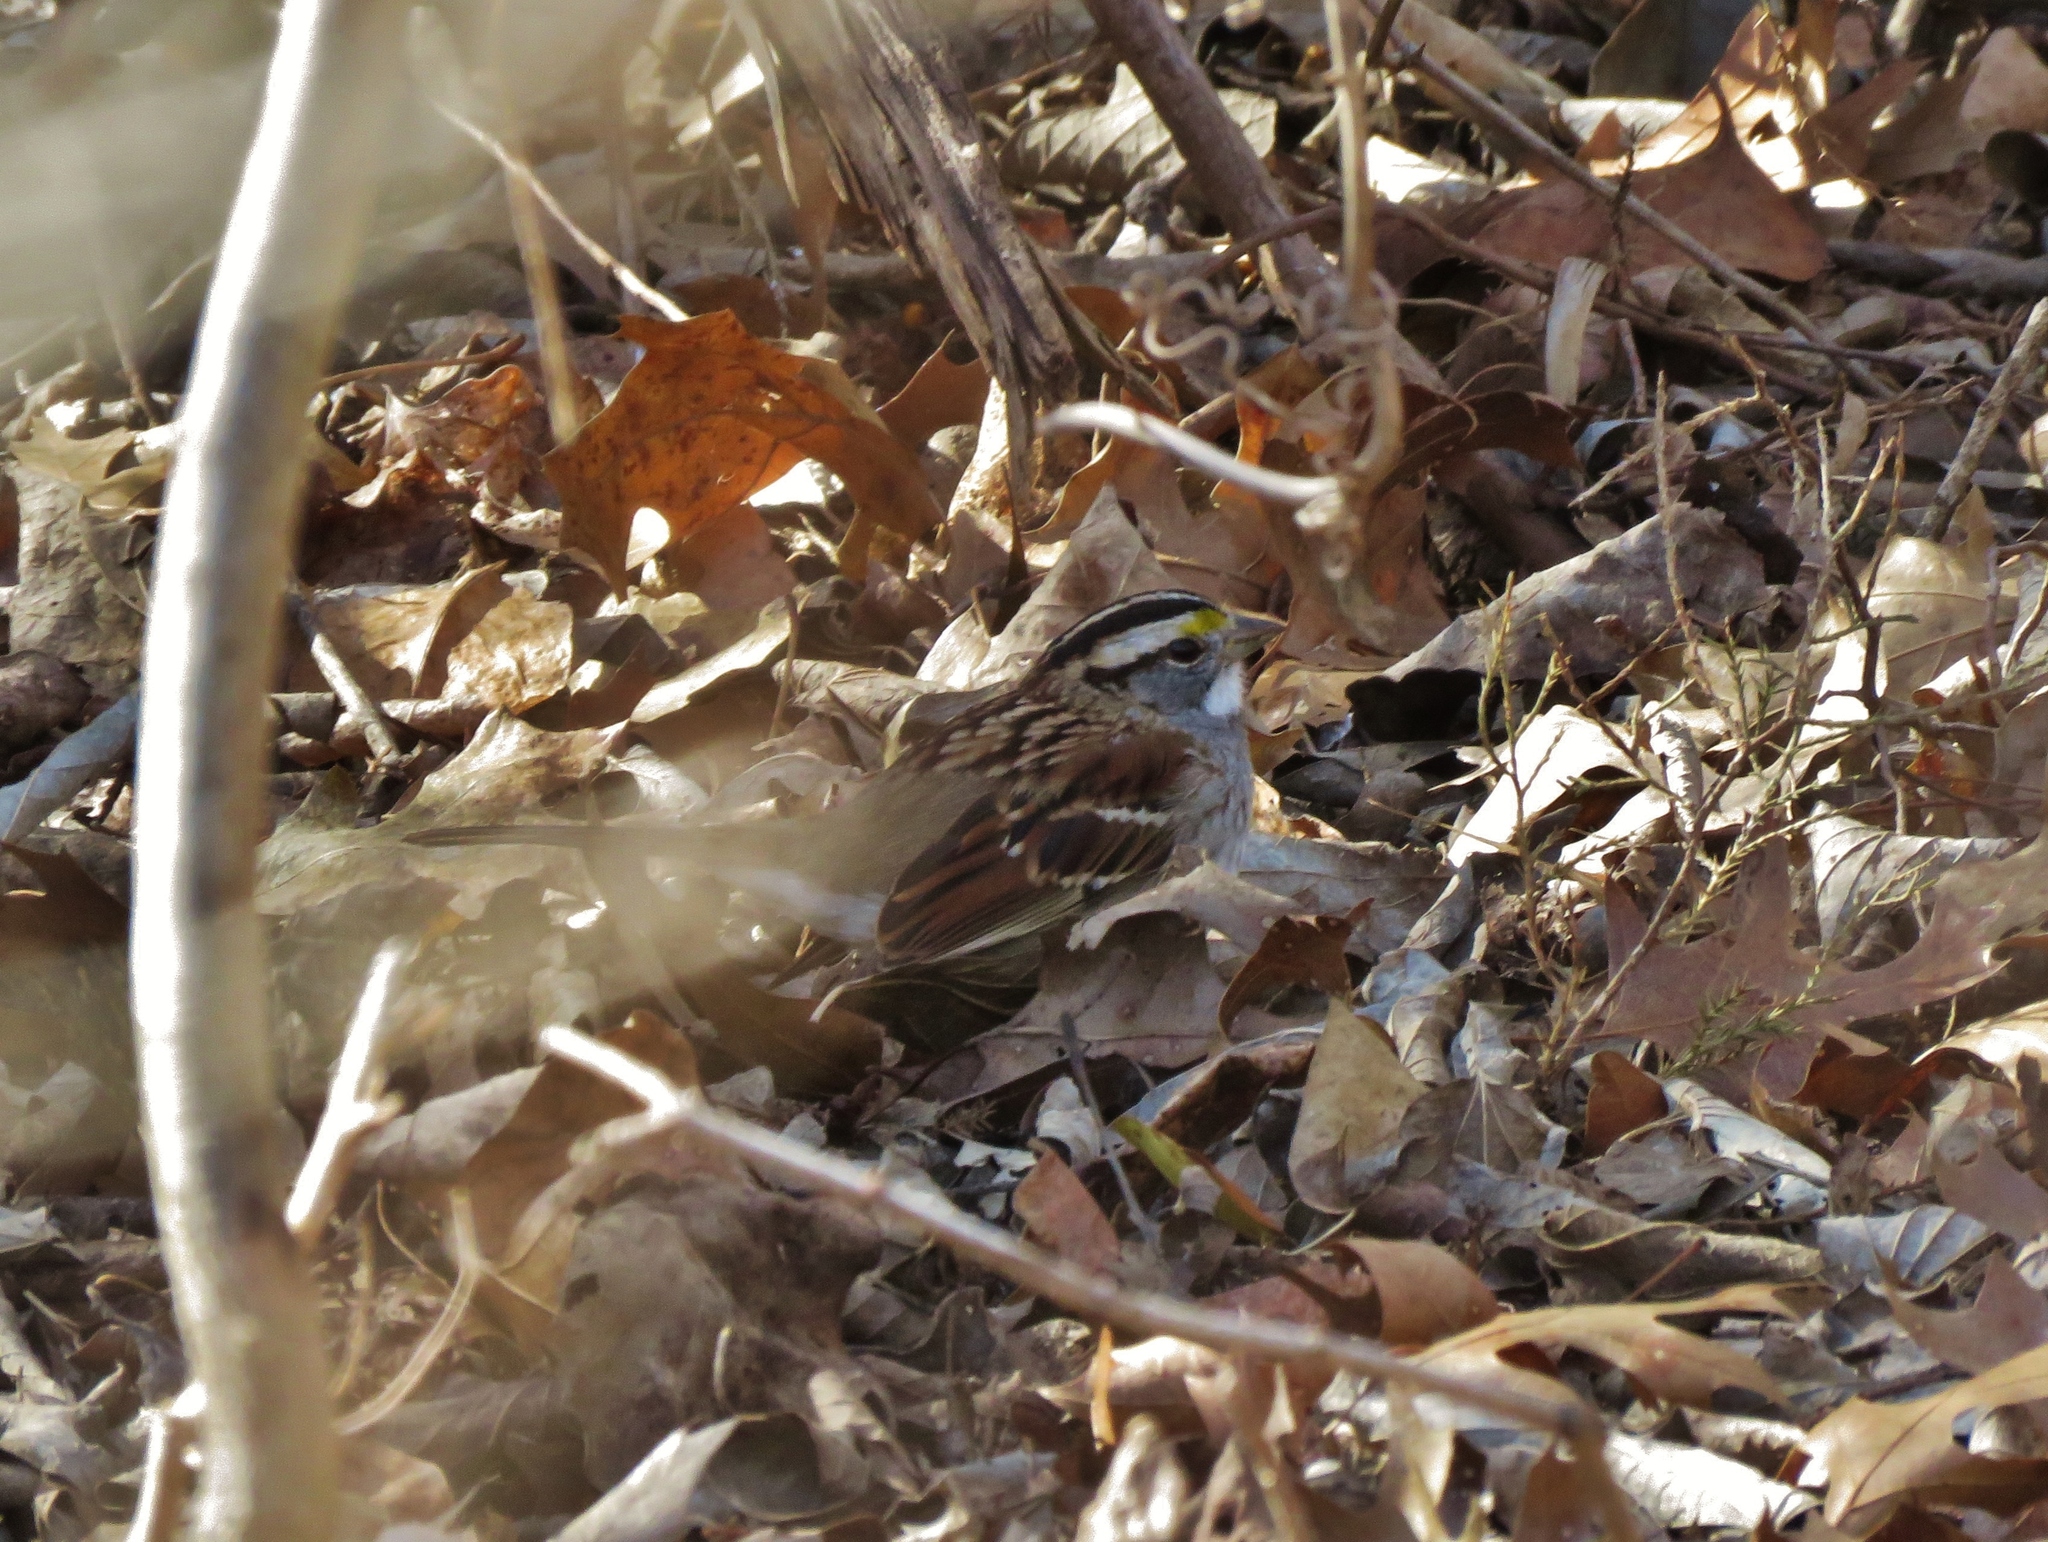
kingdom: Animalia
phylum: Chordata
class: Aves
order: Passeriformes
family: Passerellidae
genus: Zonotrichia
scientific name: Zonotrichia albicollis
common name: White-throated sparrow
